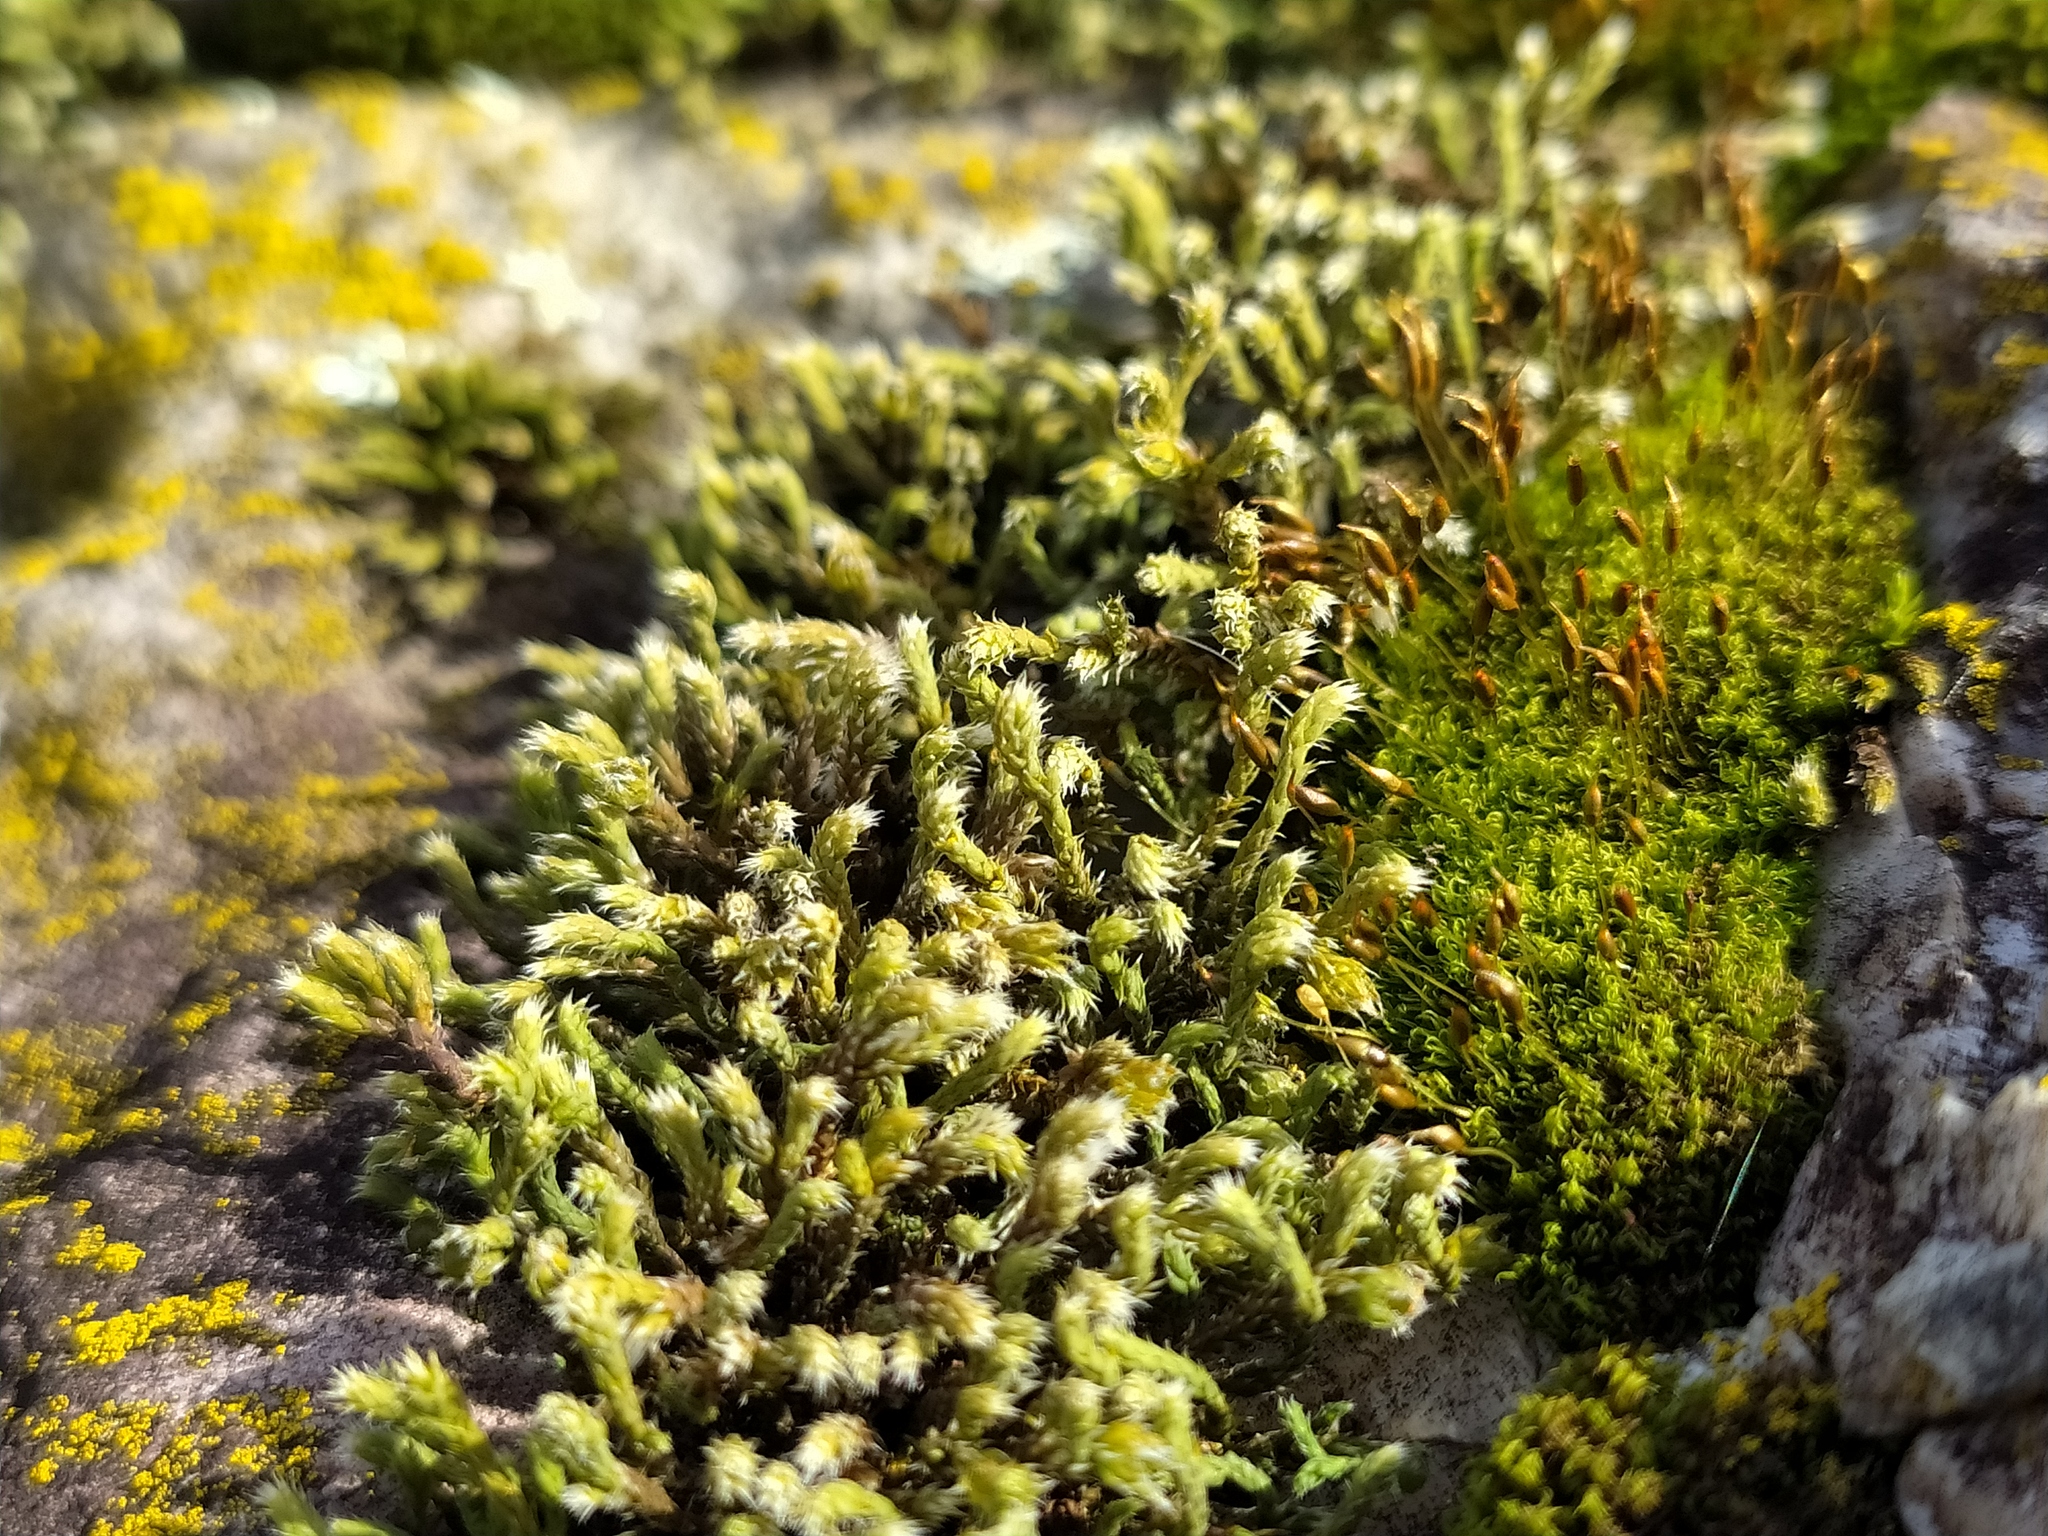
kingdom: Plantae
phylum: Bryophyta
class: Bryopsida
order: Hedwigiales
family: Hedwigiaceae
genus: Hedwigia
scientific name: Hedwigia ciliata
